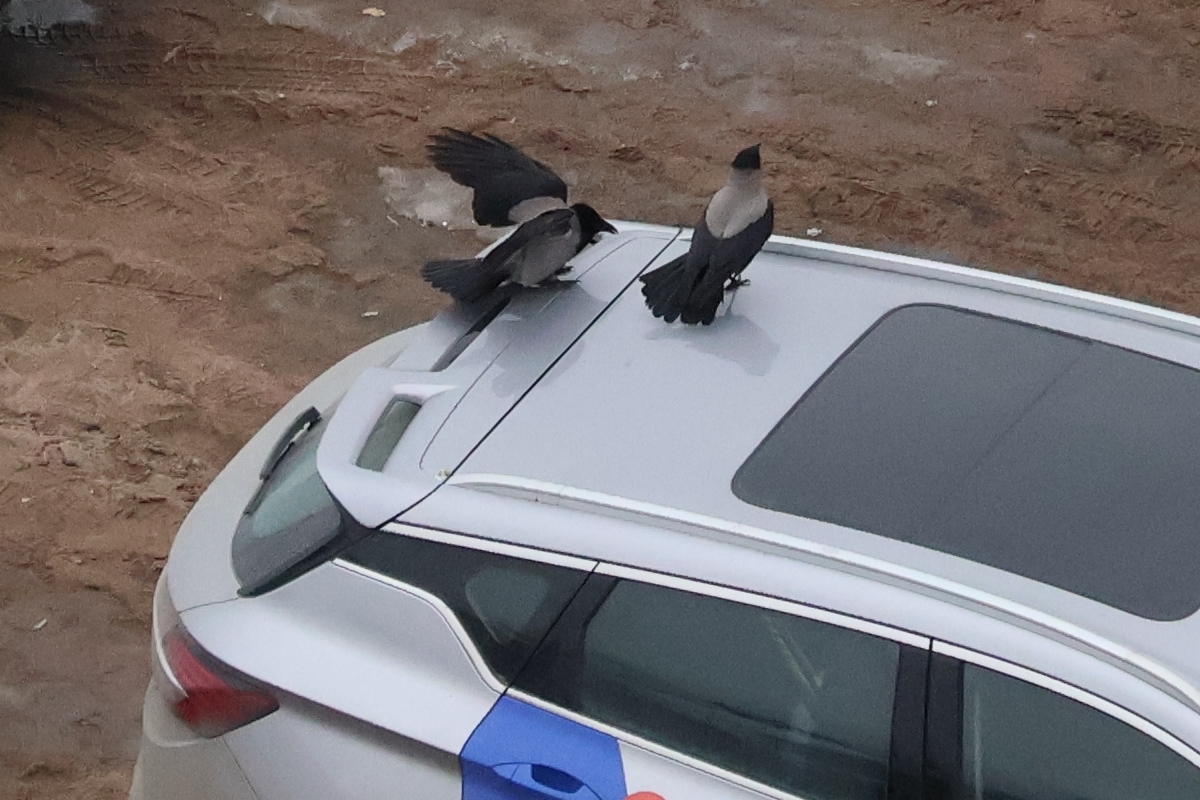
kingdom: Animalia
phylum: Chordata
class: Aves
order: Passeriformes
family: Corvidae
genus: Corvus
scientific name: Corvus cornix
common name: Hooded crow
